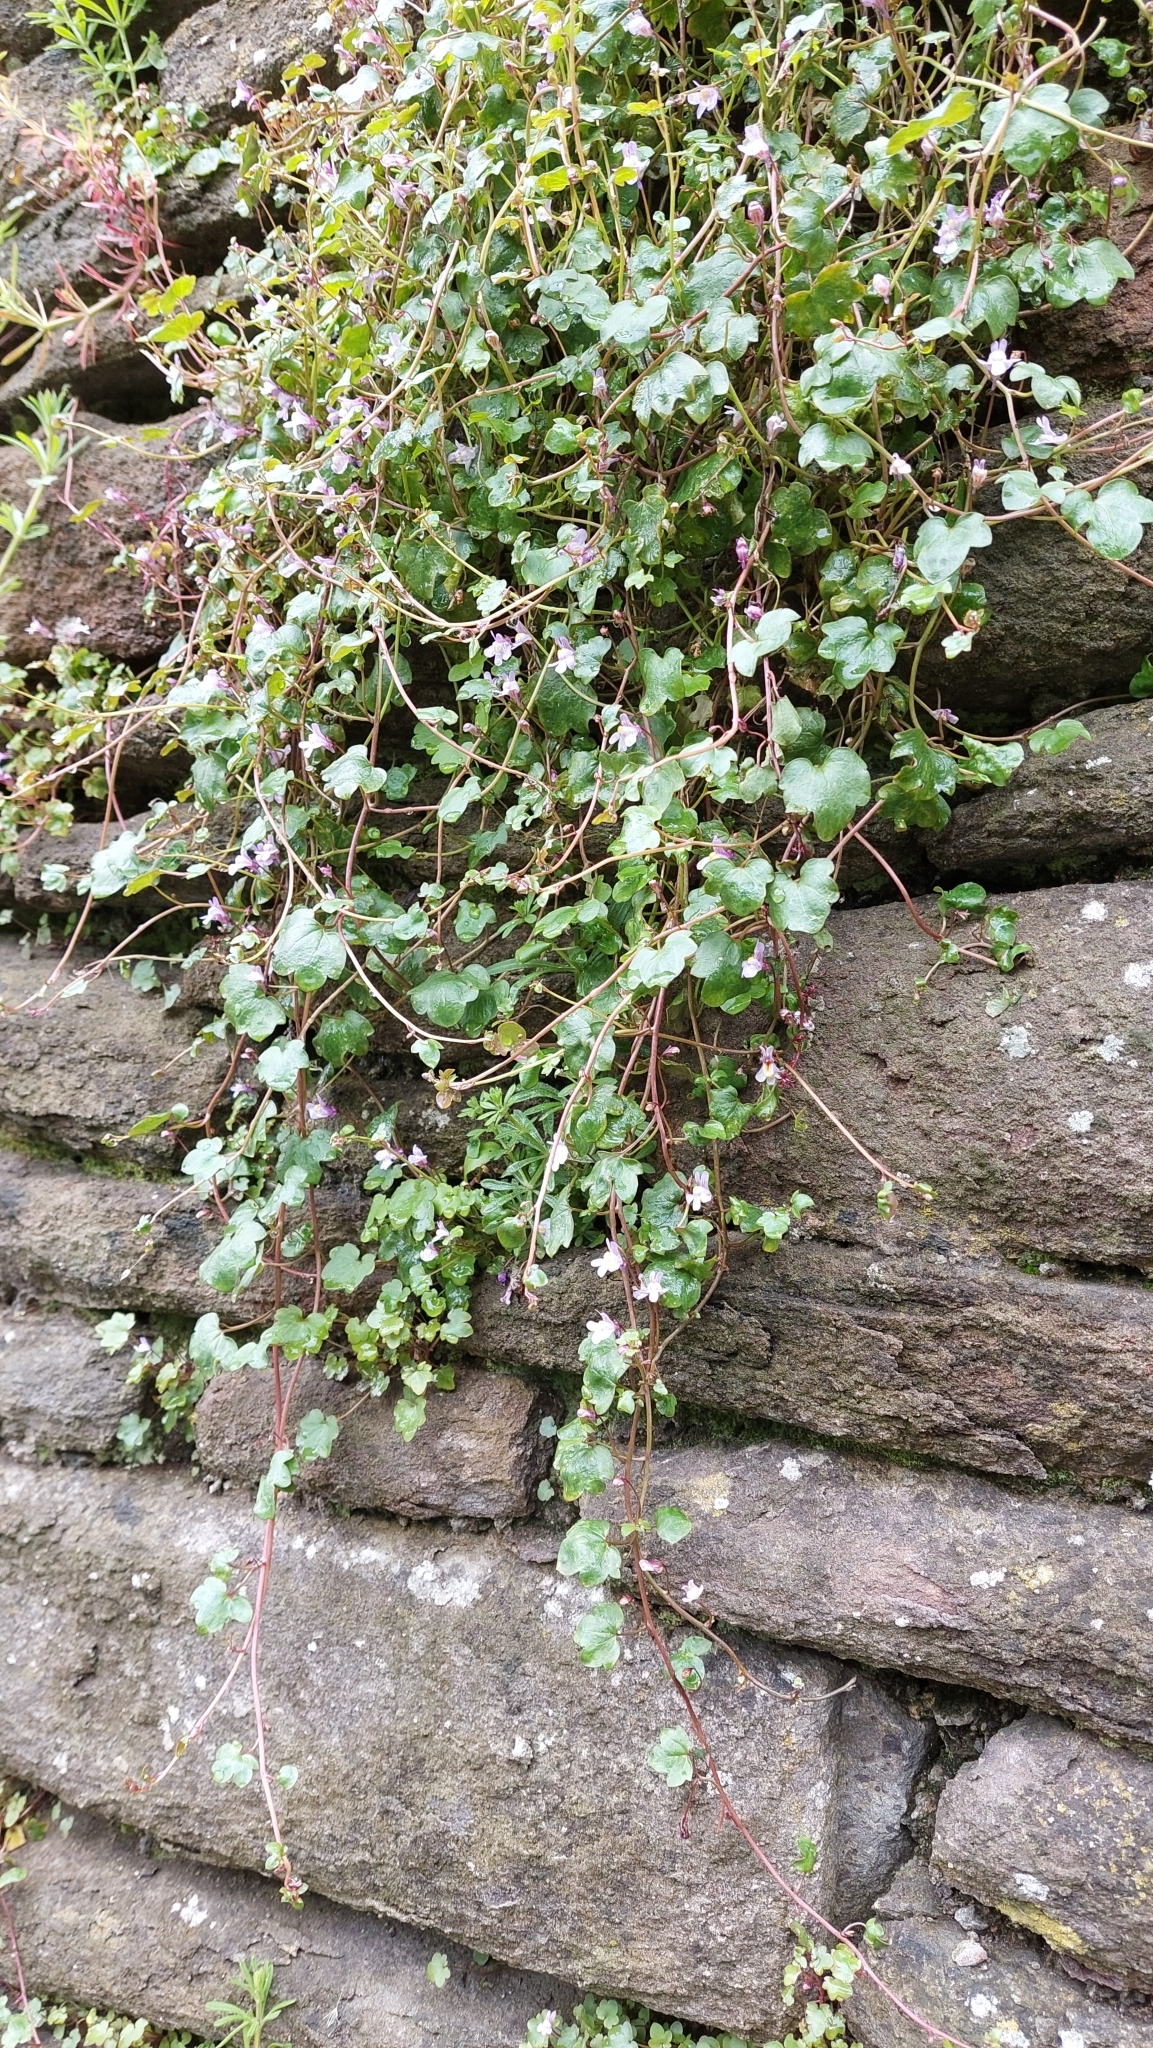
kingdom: Plantae
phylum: Tracheophyta
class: Magnoliopsida
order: Lamiales
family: Plantaginaceae
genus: Cymbalaria
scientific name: Cymbalaria muralis
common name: Ivy-leaved toadflax
